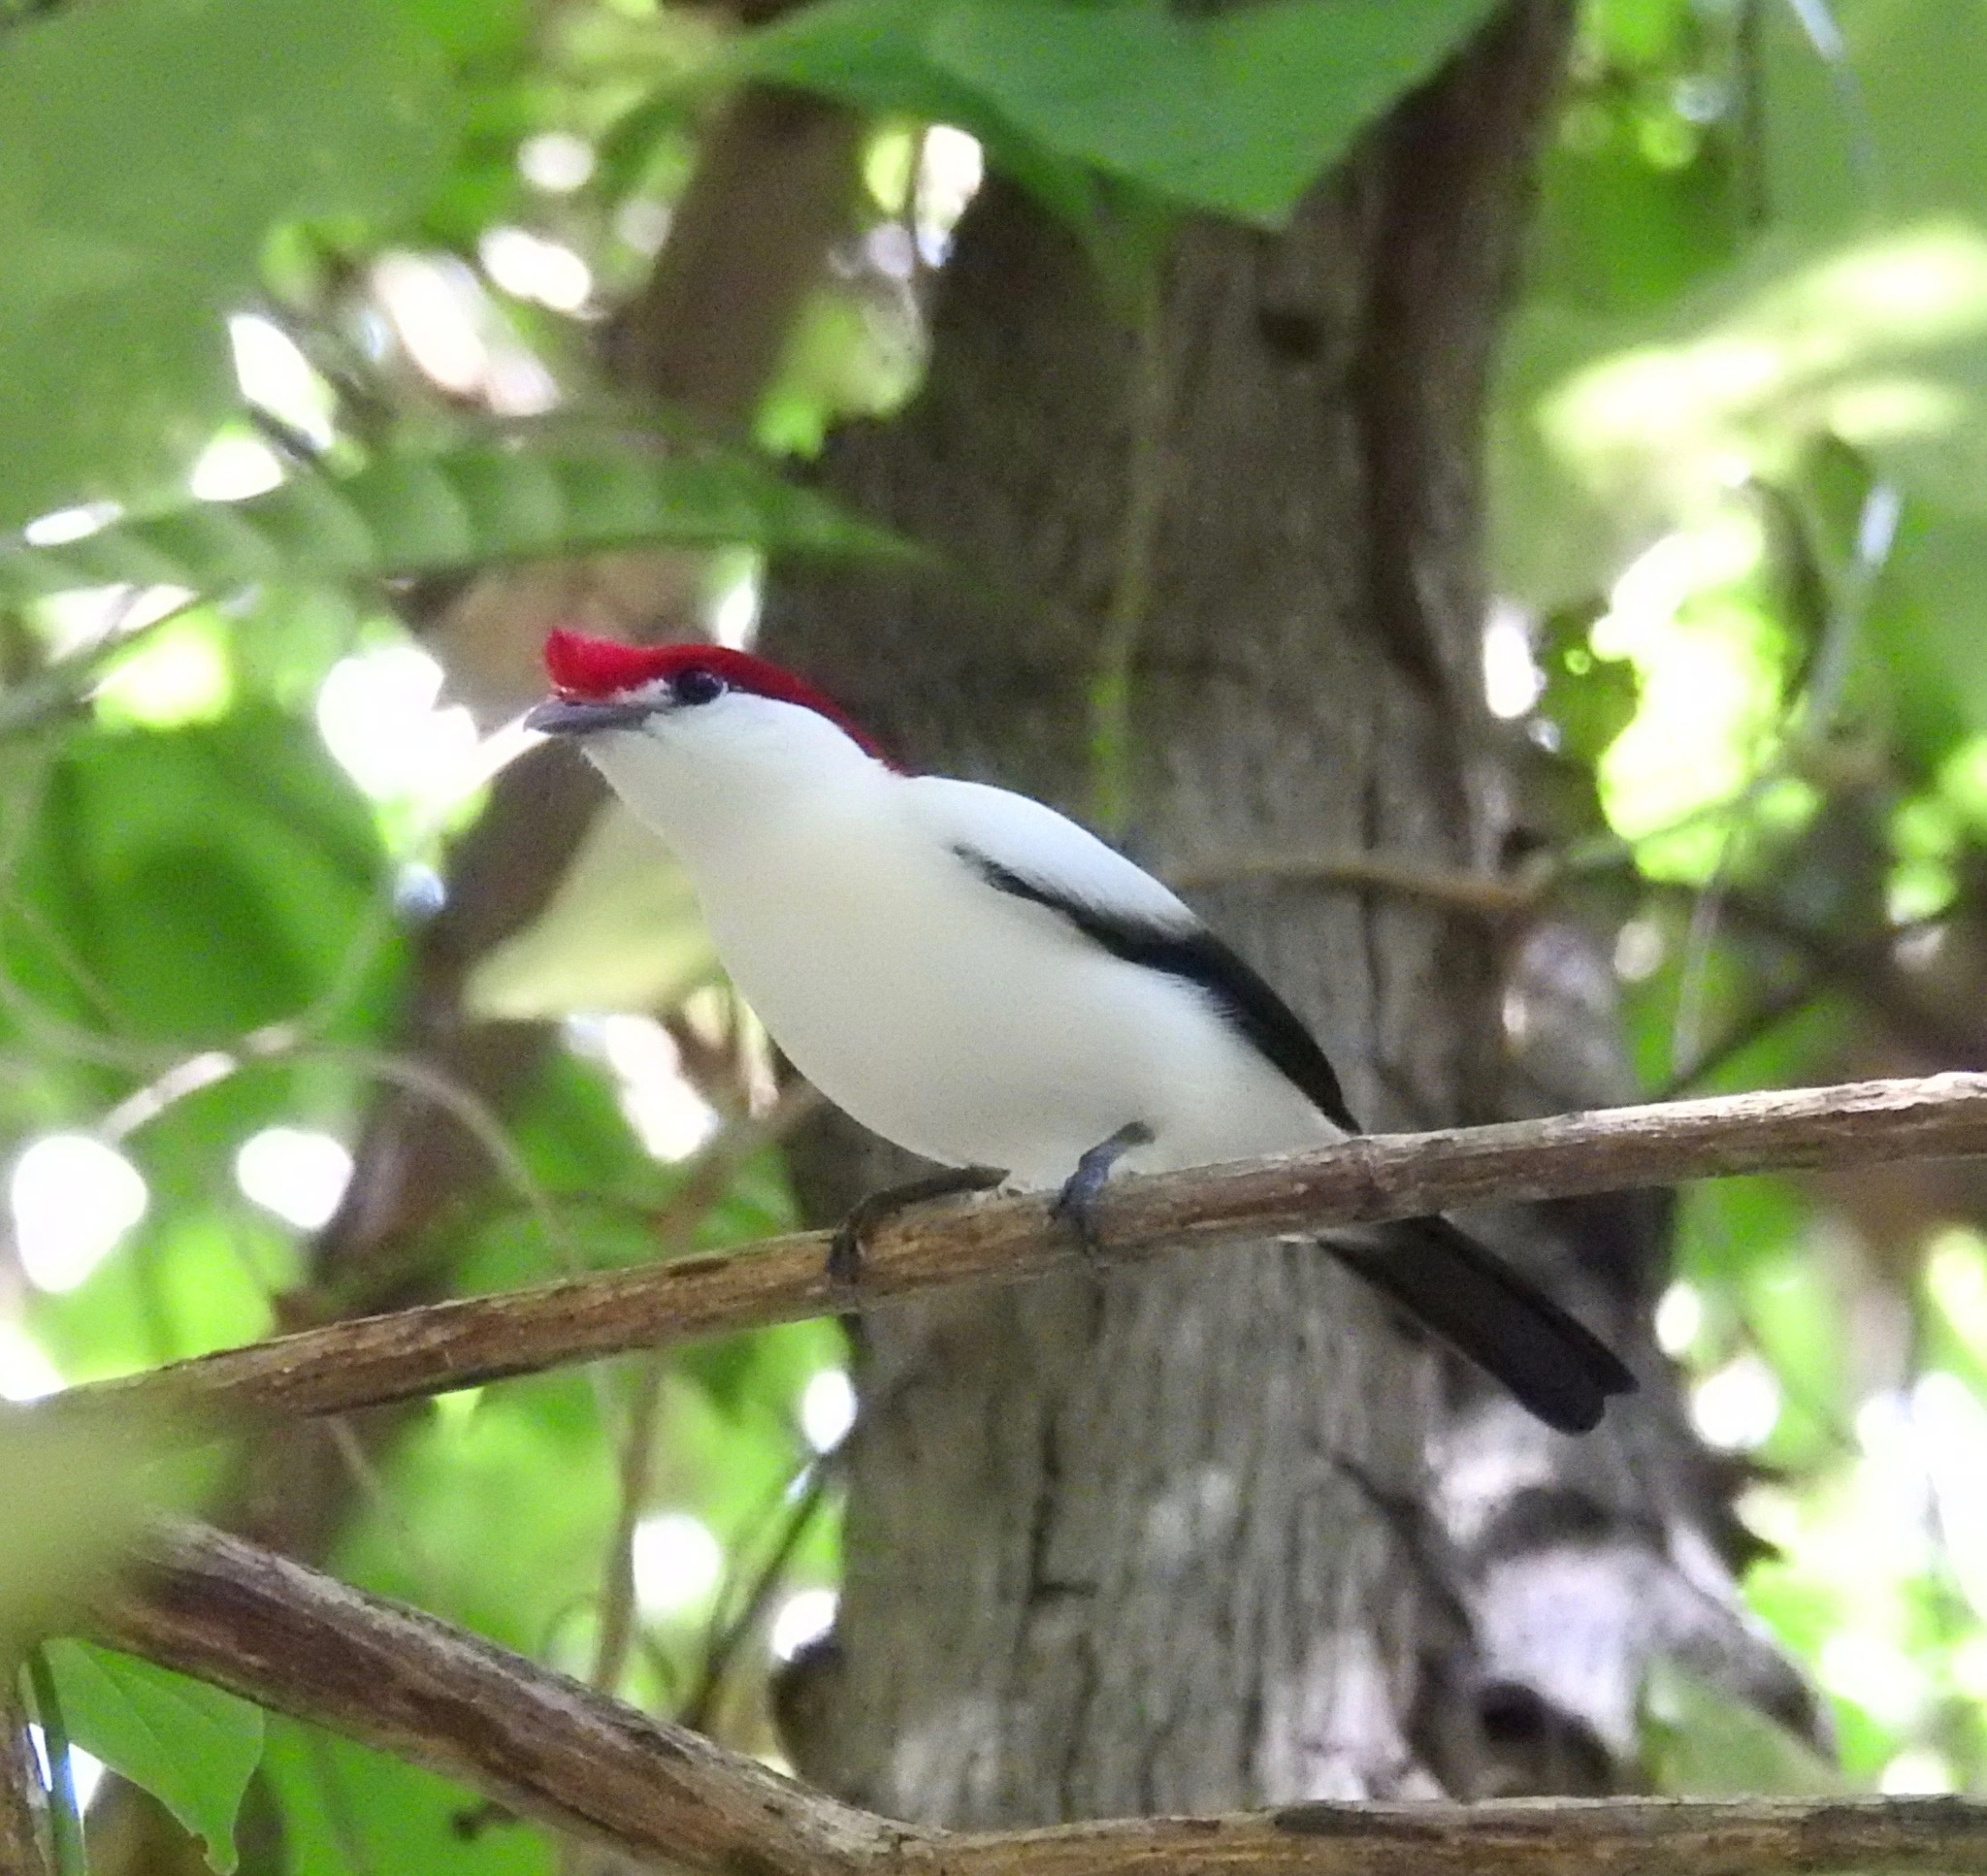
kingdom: Animalia
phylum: Chordata
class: Aves
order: Passeriformes
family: Pipridae
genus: Antilophia
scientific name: Antilophia bokermanni
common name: Araripe manakin
